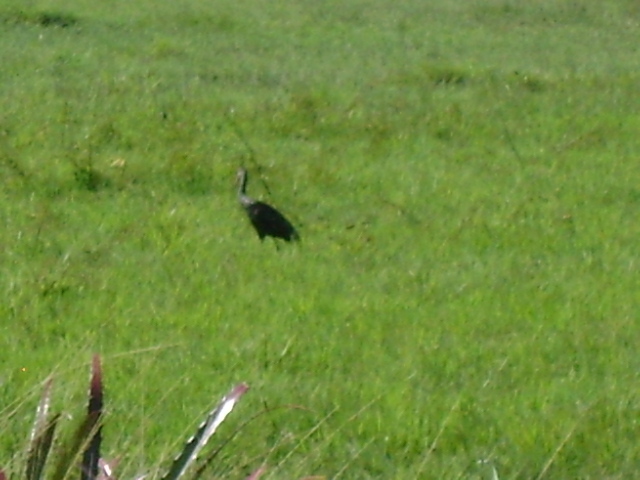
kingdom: Animalia
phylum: Chordata
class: Aves
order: Gruiformes
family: Aramidae
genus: Aramus
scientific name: Aramus guarauna
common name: Limpkin
